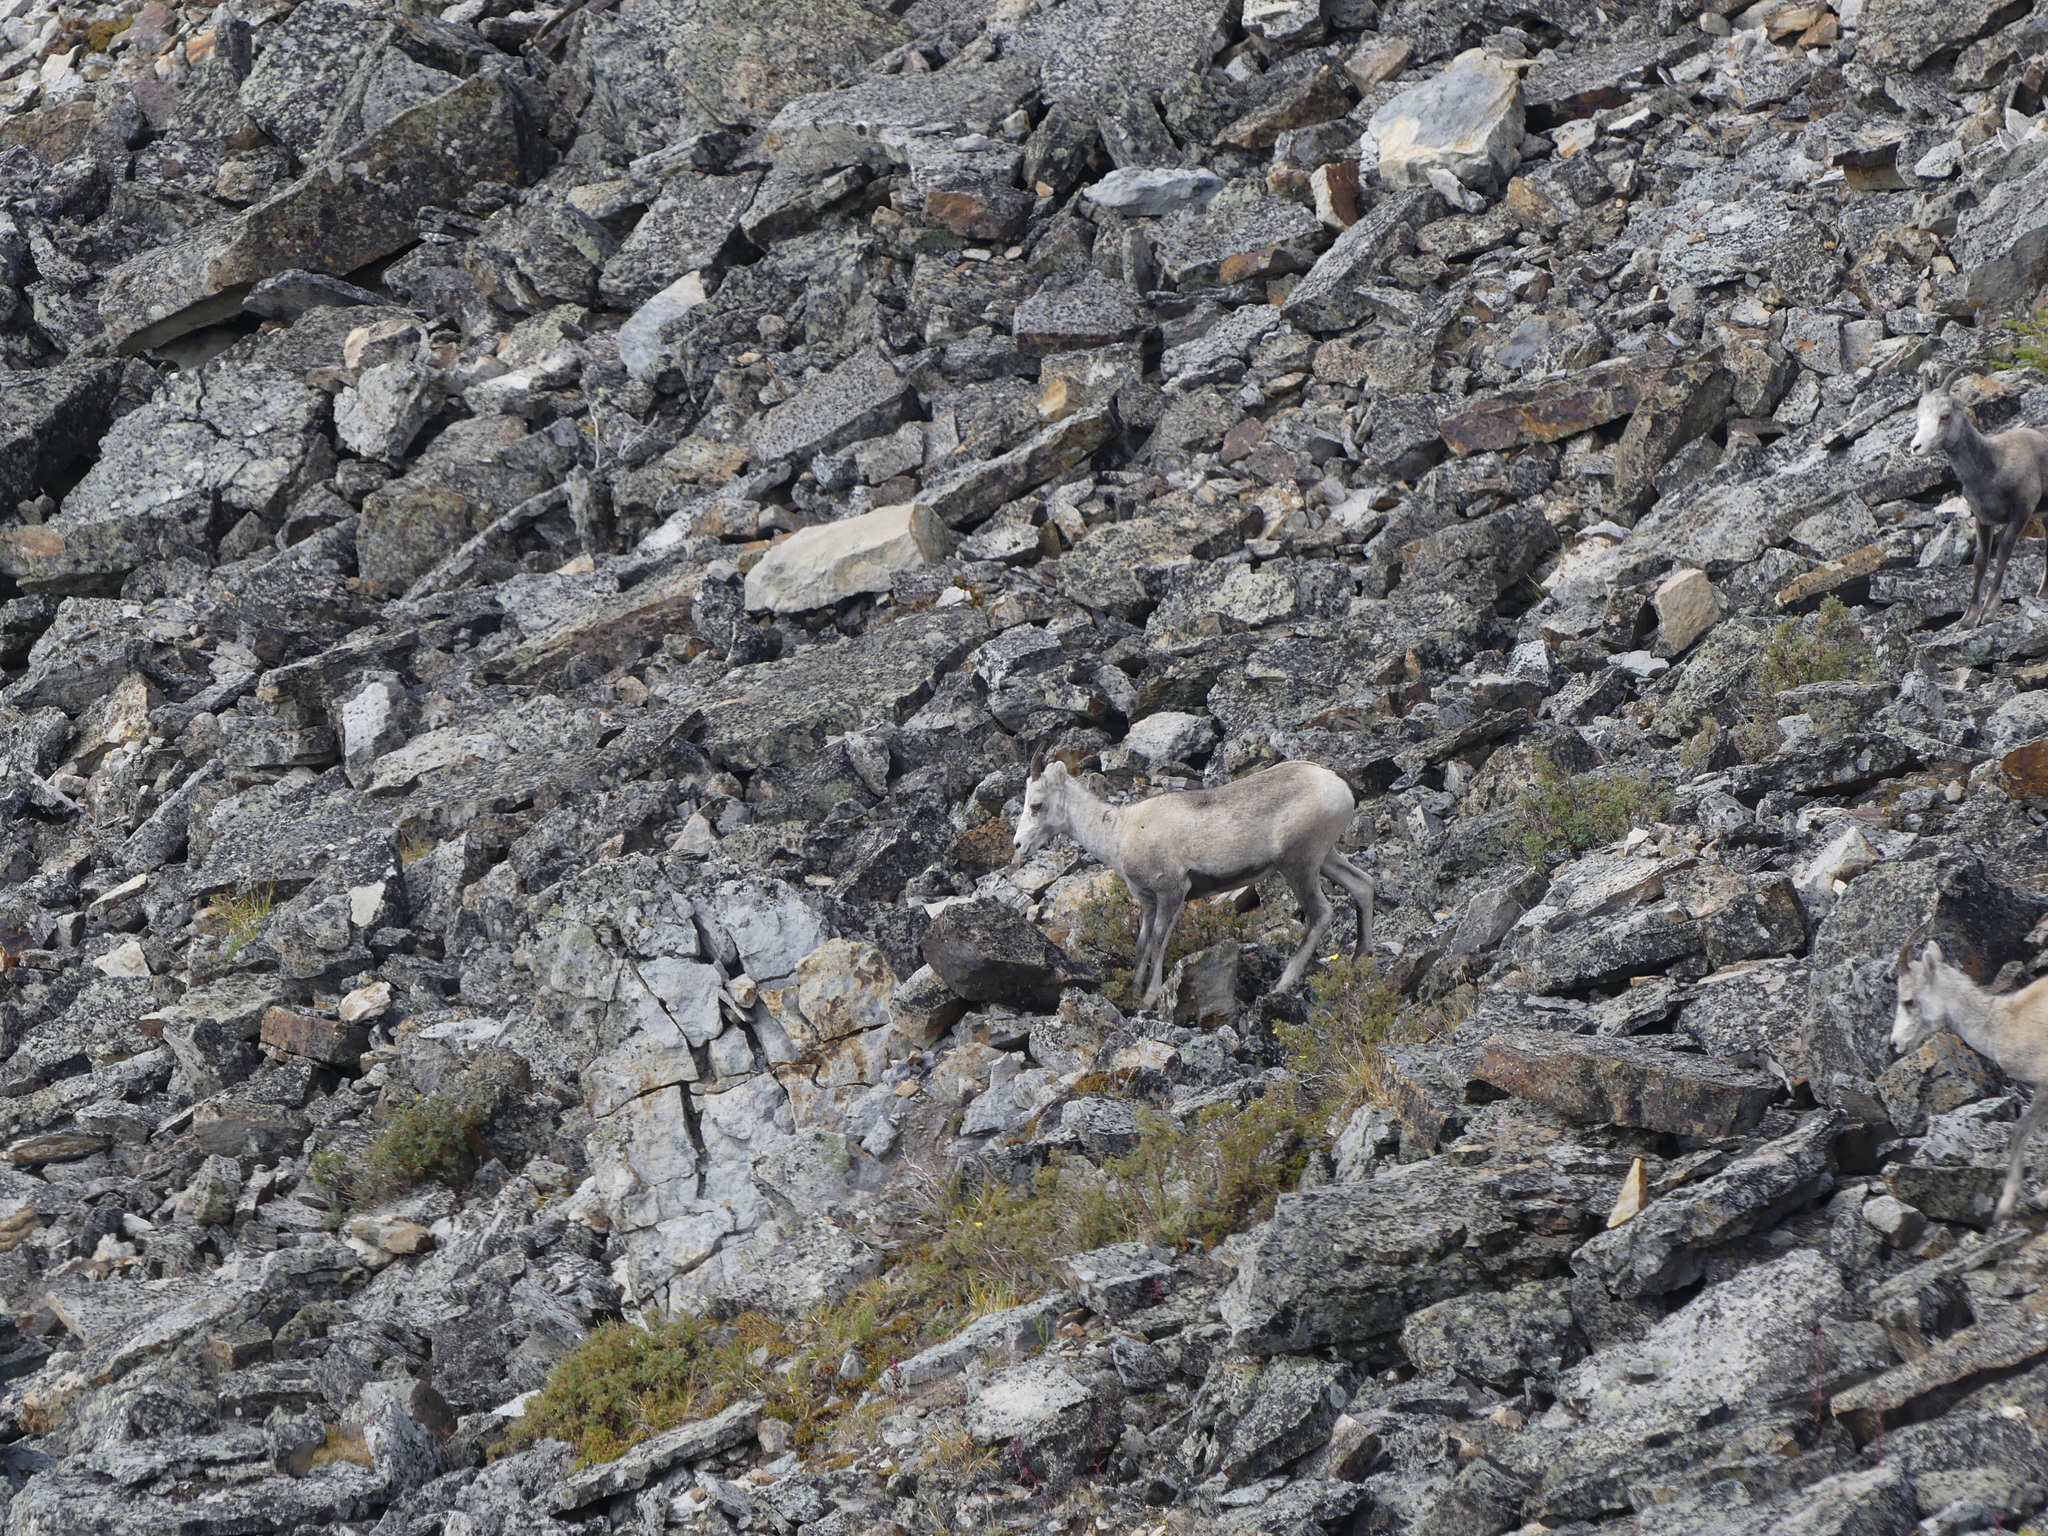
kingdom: Animalia
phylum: Chordata
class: Mammalia
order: Artiodactyla
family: Bovidae
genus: Ovis
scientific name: Ovis dalli
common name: Dall's sheep
